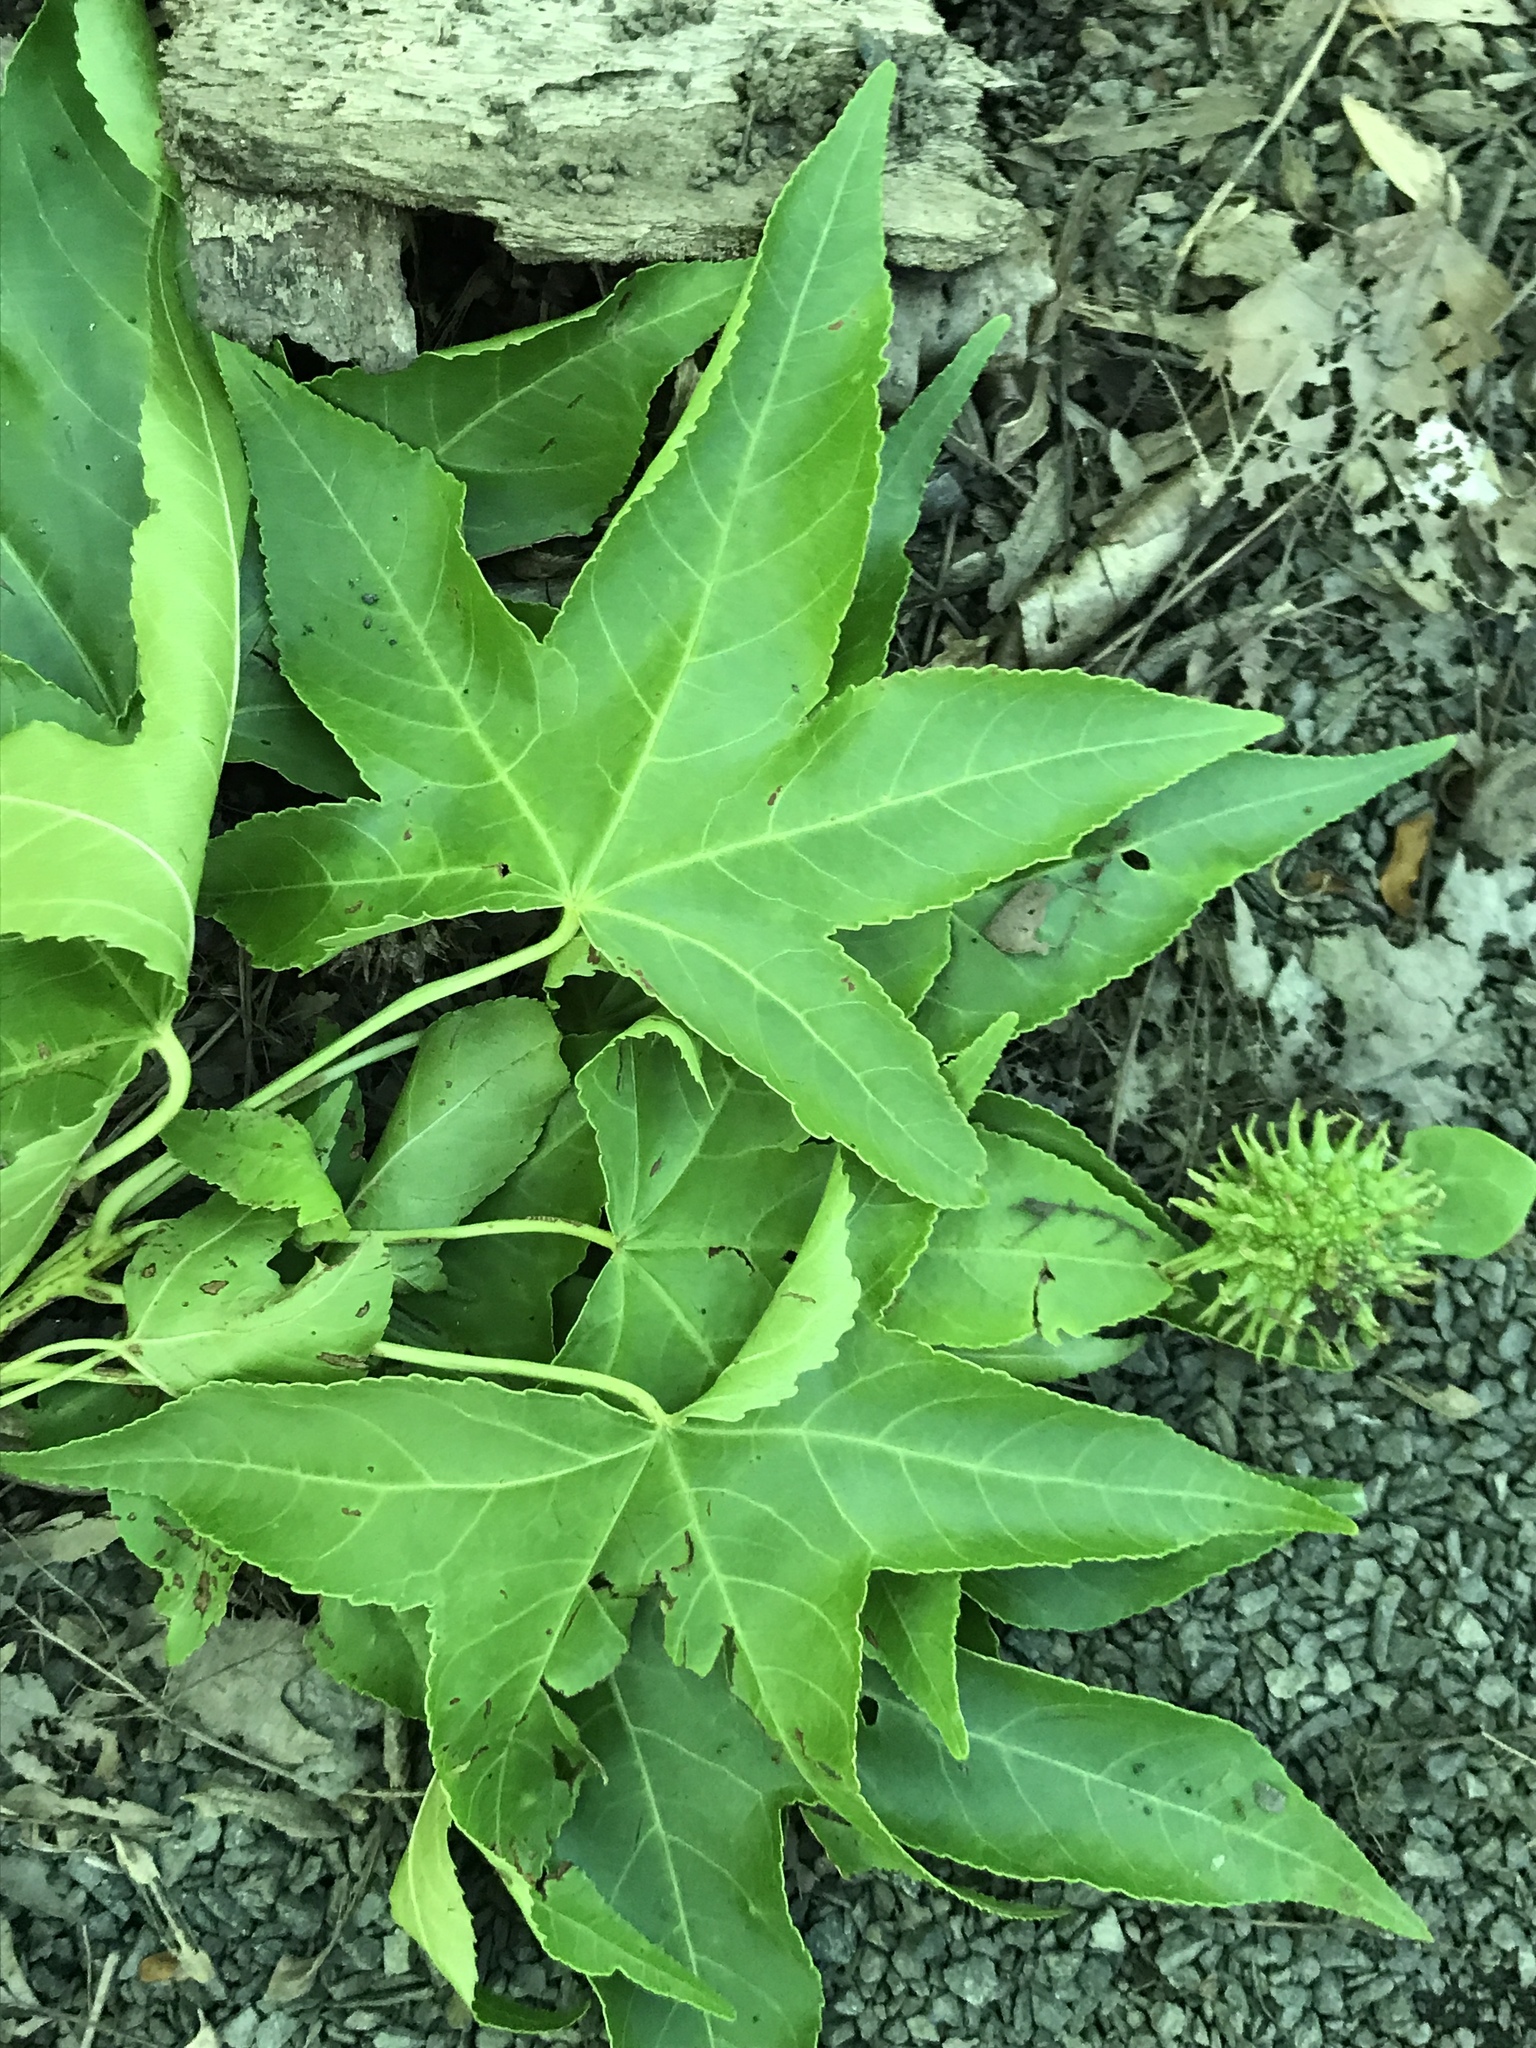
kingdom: Plantae
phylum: Tracheophyta
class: Magnoliopsida
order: Saxifragales
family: Altingiaceae
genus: Liquidambar
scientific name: Liquidambar styraciflua
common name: Sweet gum
